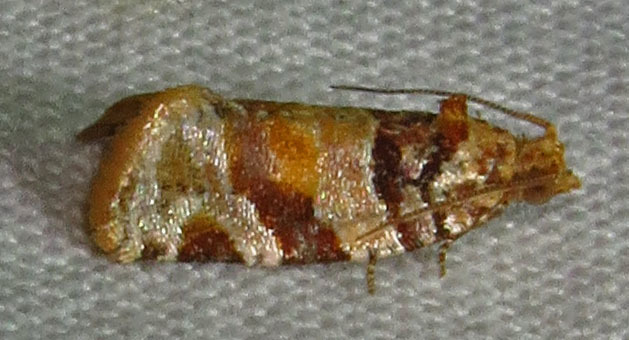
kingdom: Animalia
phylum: Arthropoda
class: Insecta
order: Lepidoptera
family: Tortricidae
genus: Argyrotaenia
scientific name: Argyrotaenia kimballi
